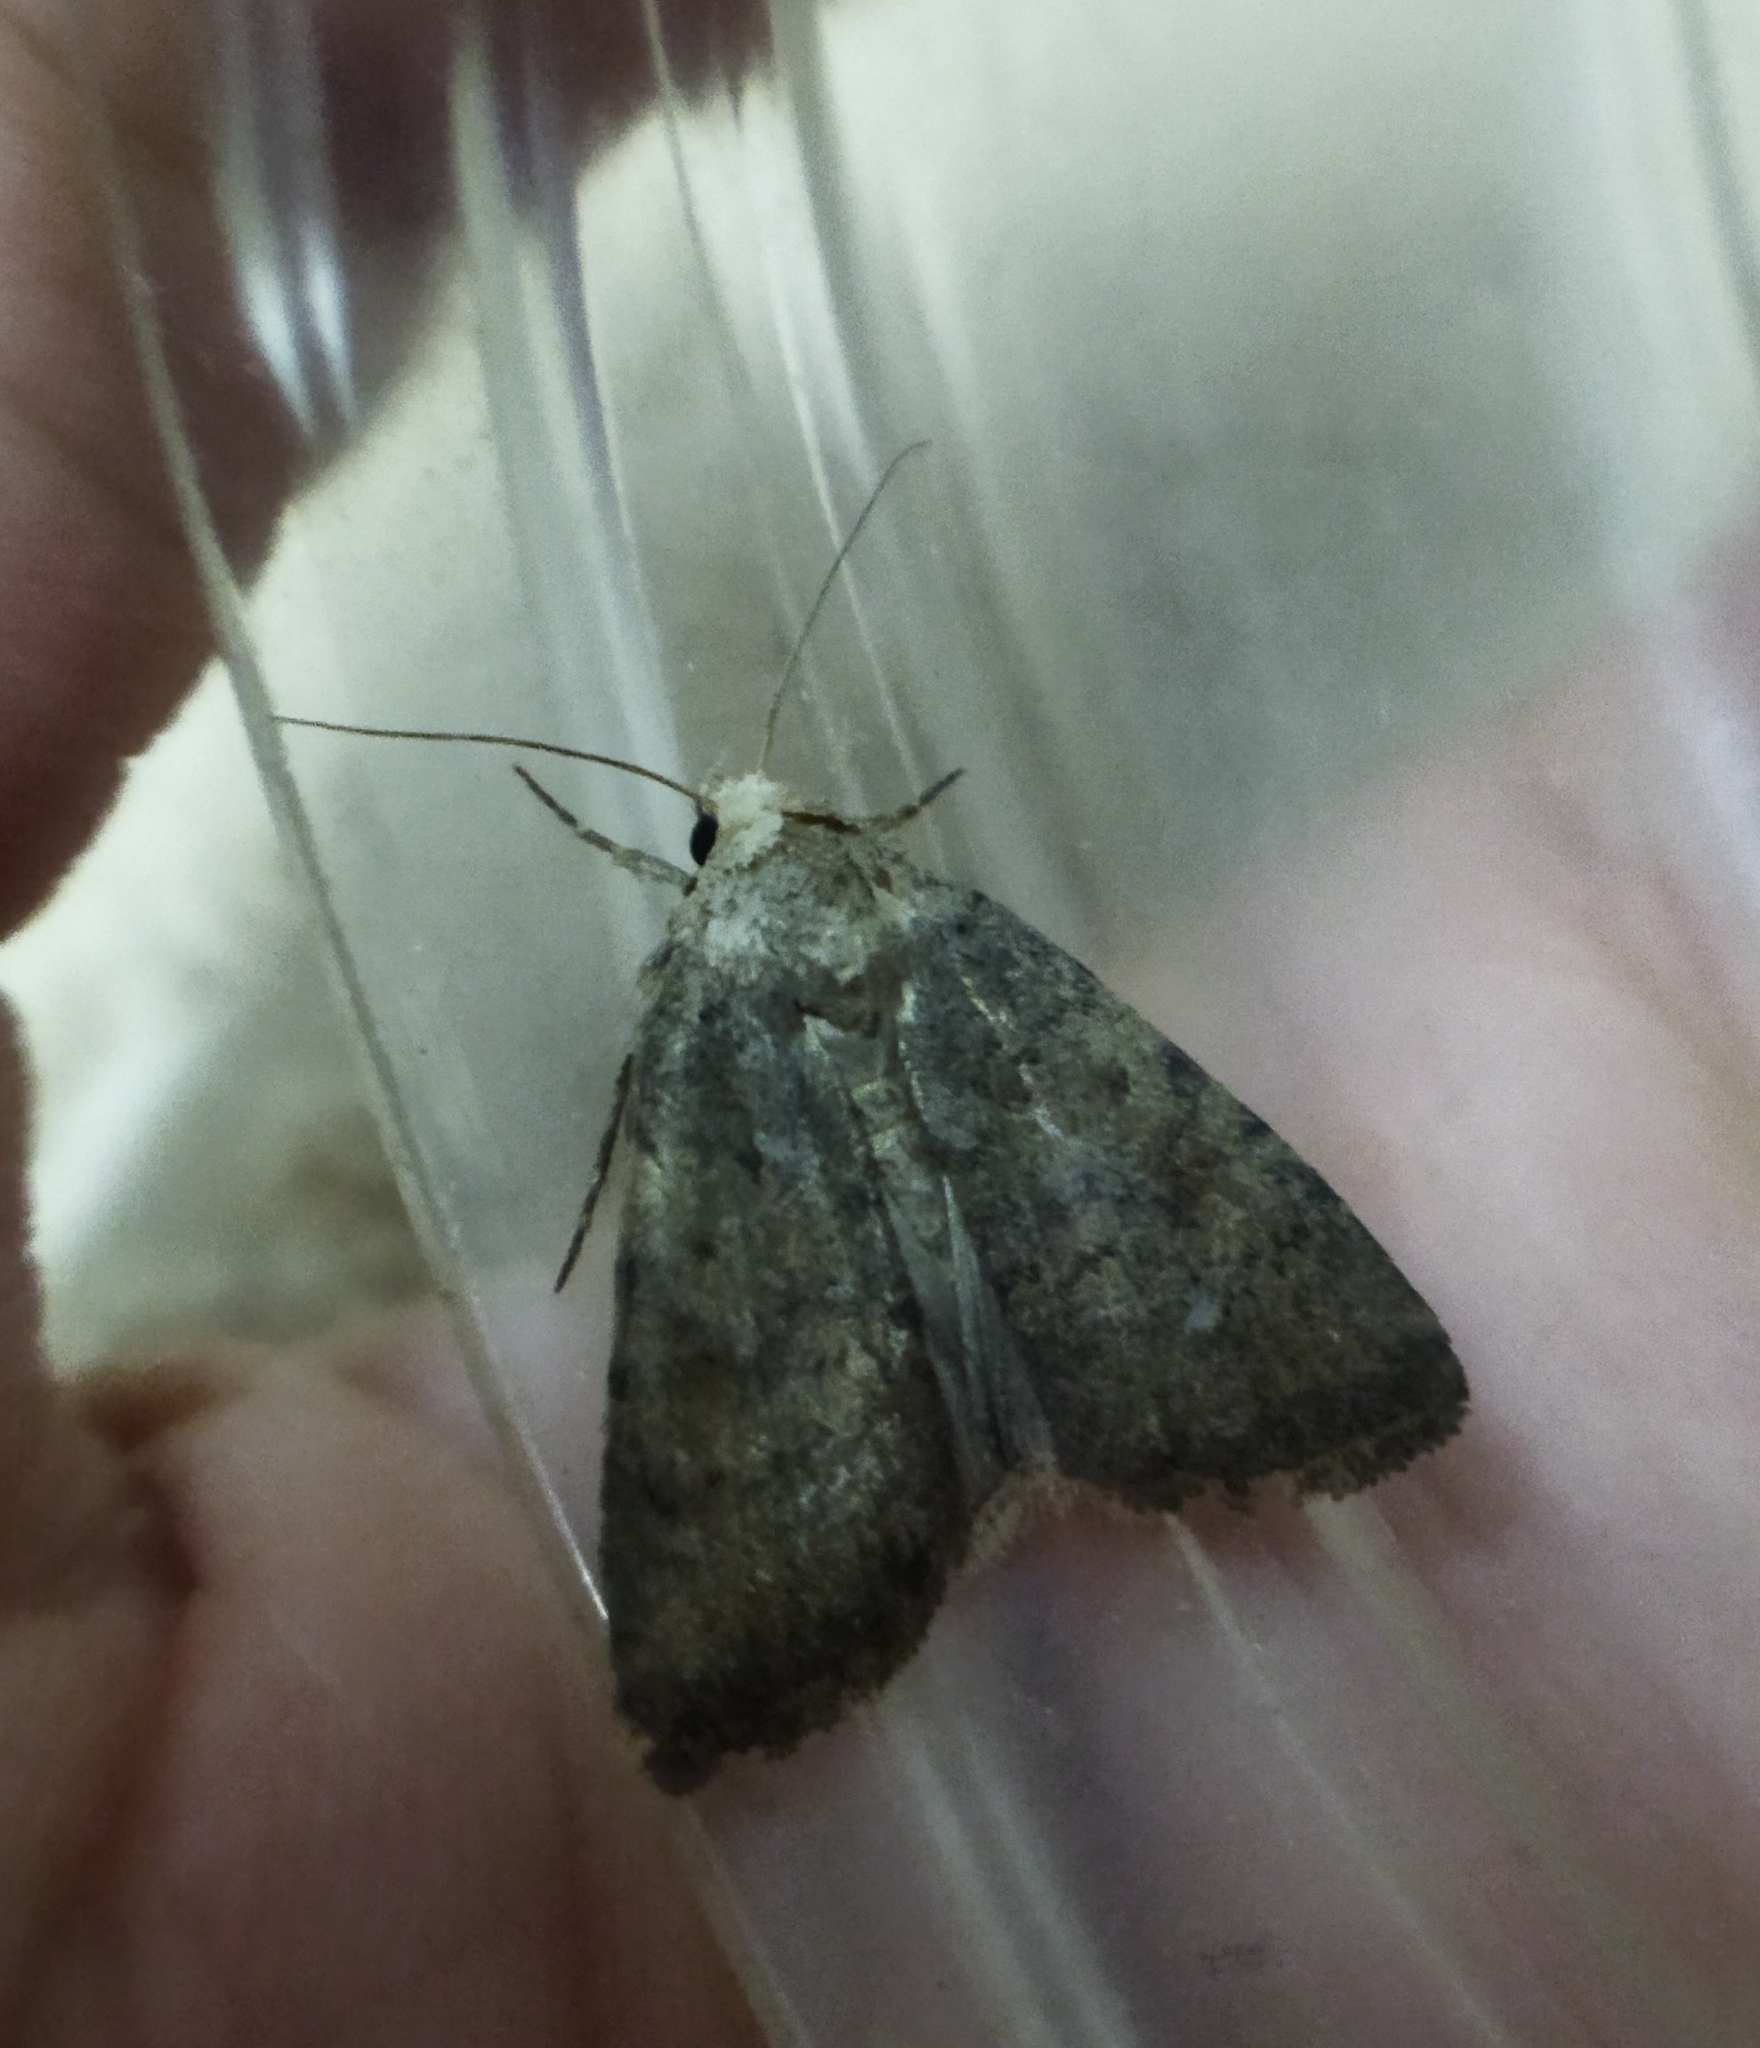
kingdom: Animalia
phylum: Arthropoda
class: Insecta
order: Lepidoptera
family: Noctuidae
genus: Caradrina
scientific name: Caradrina clavipalpis
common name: Pale mottled willow
